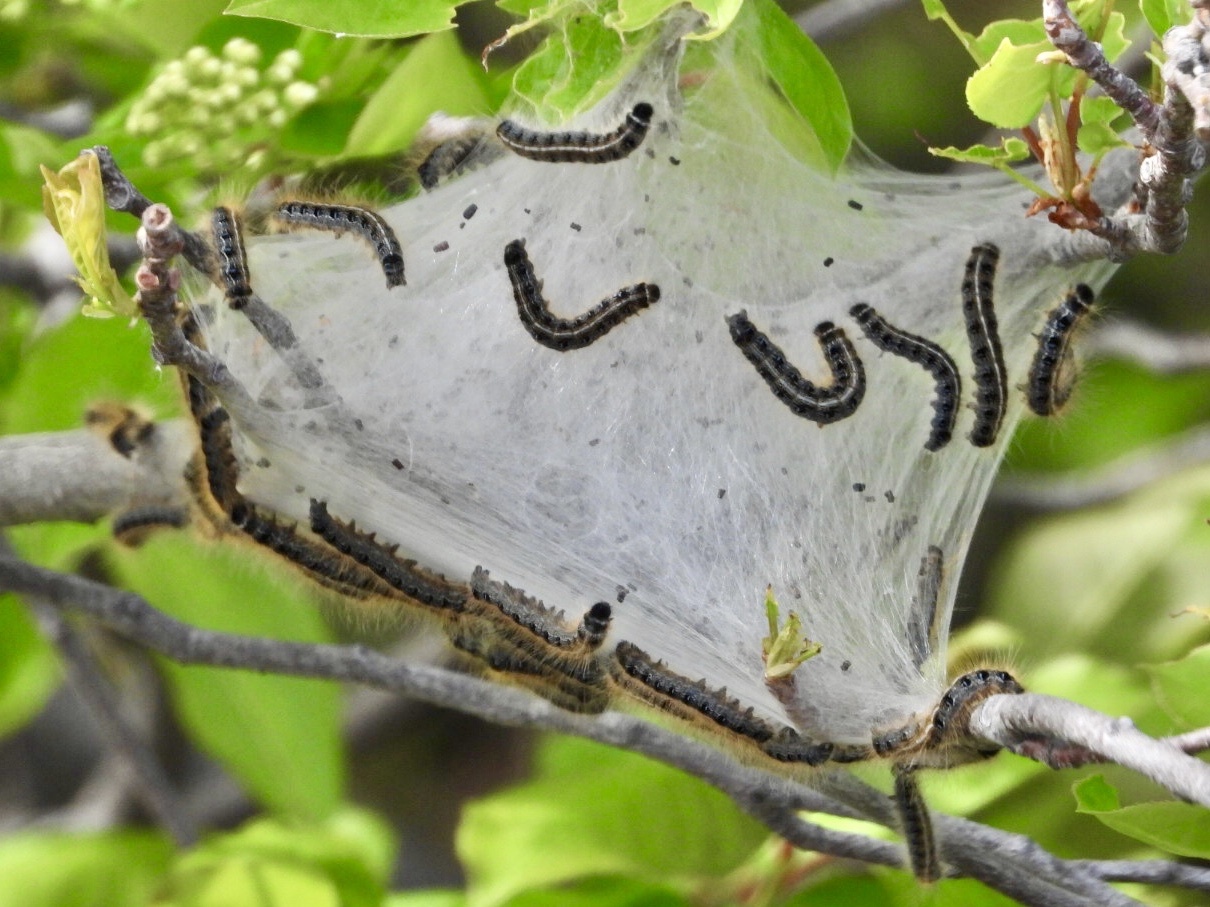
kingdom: Animalia
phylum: Arthropoda
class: Insecta
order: Lepidoptera
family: Lasiocampidae
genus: Malacosoma
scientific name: Malacosoma americana
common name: Eastern tent caterpillar moth
